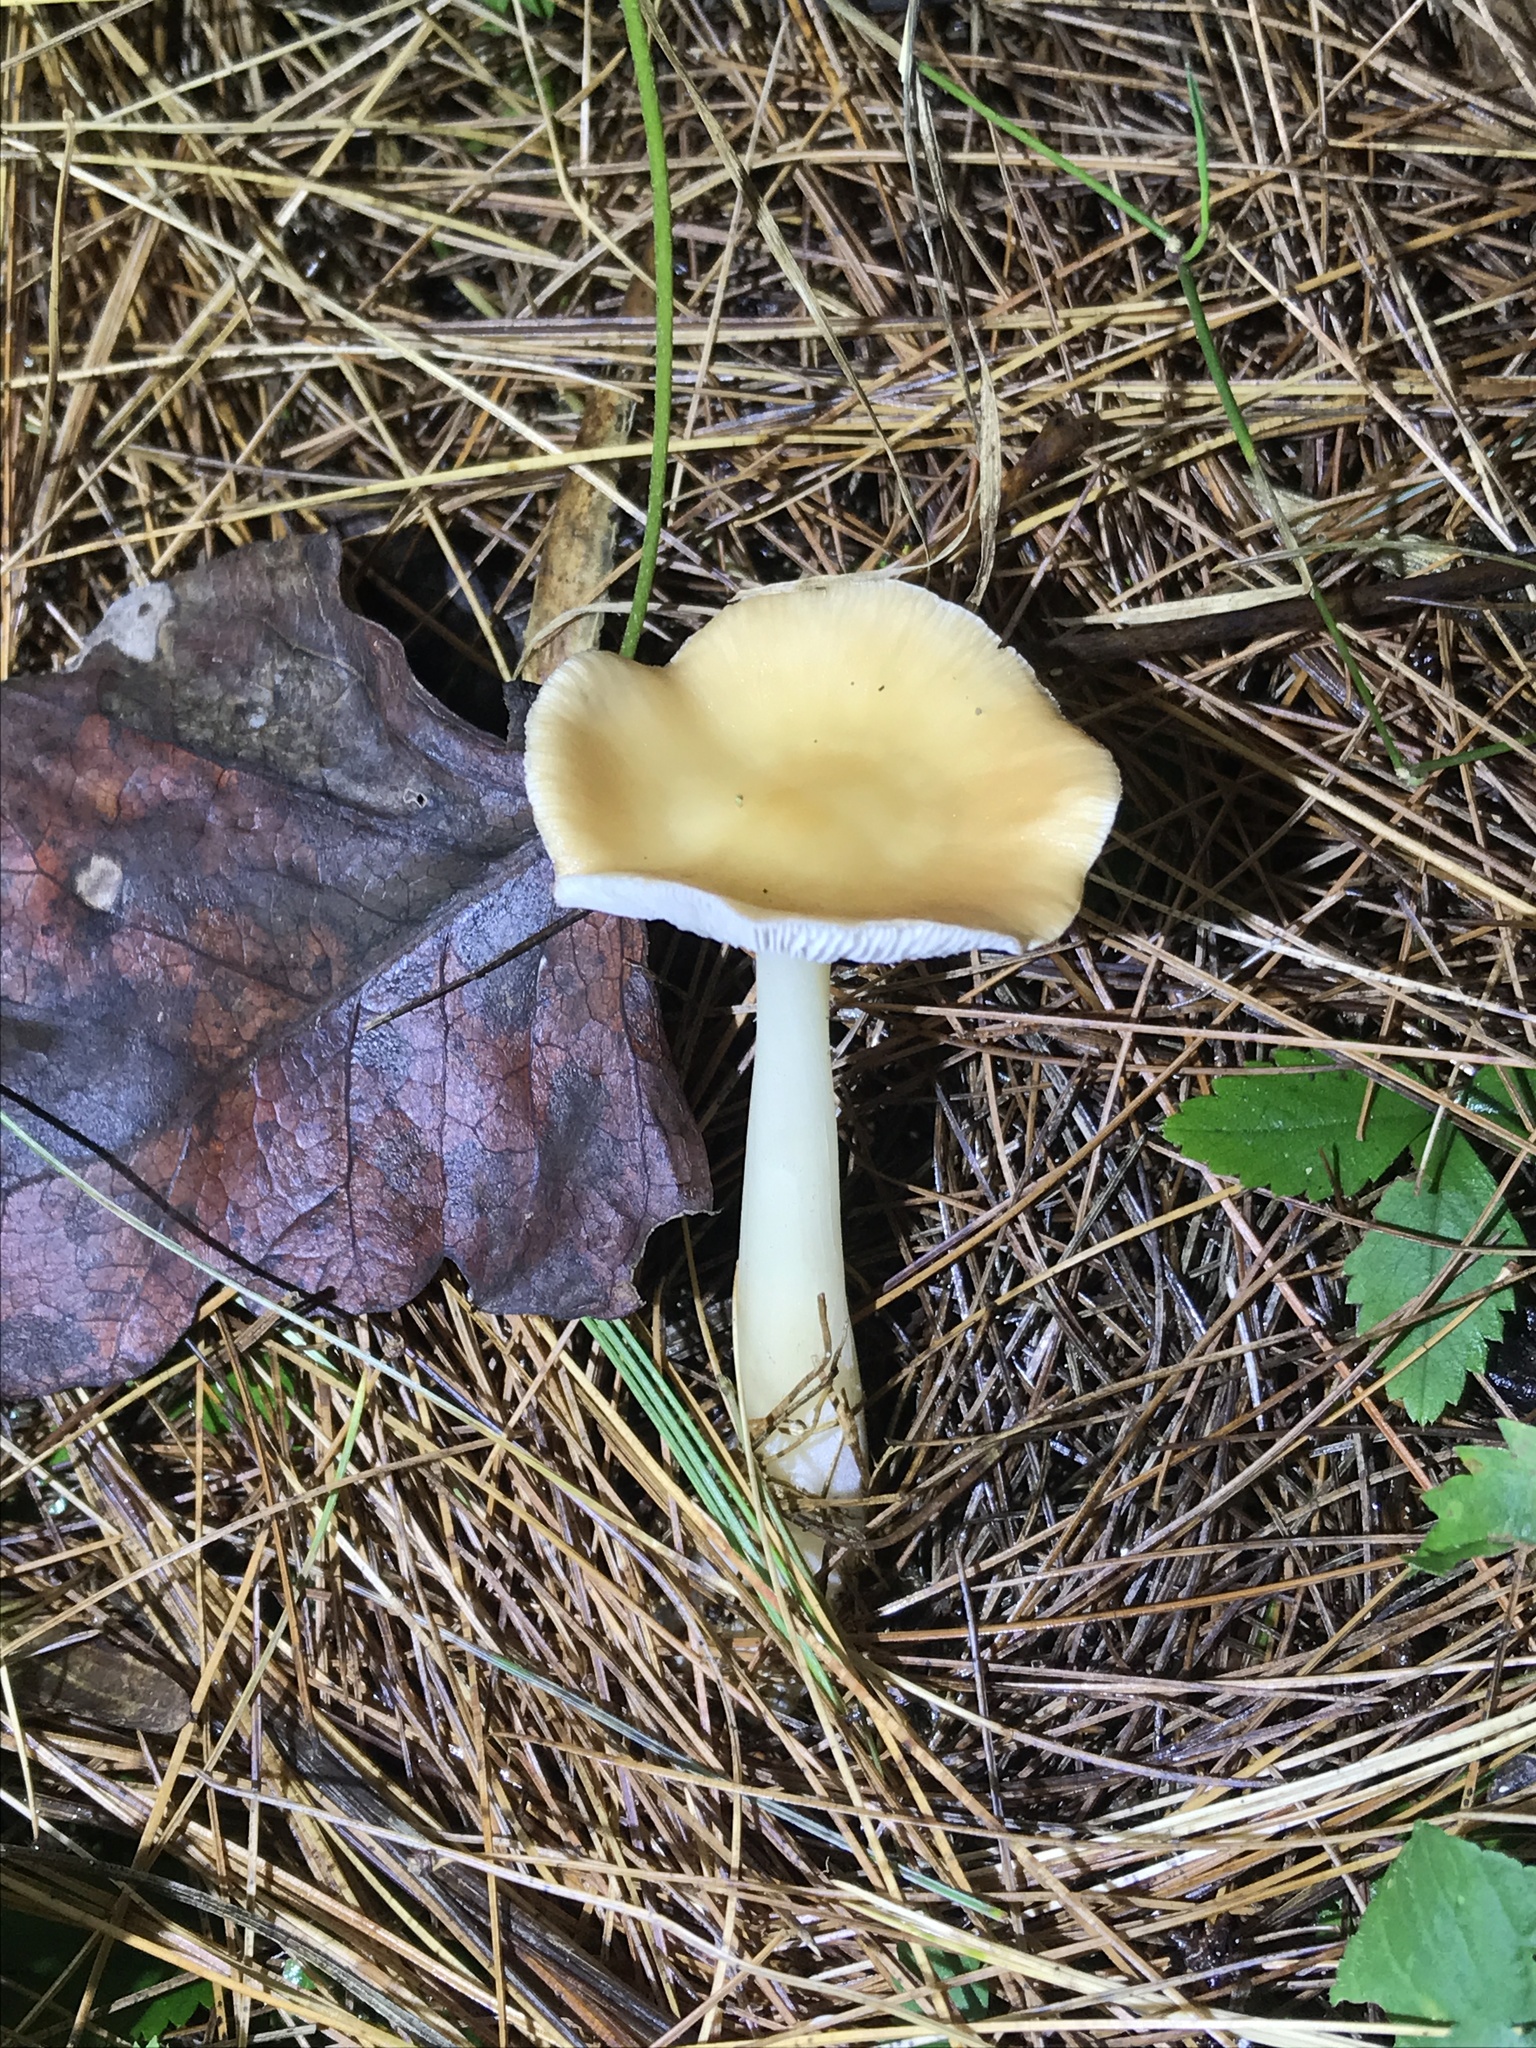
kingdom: Fungi
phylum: Basidiomycota
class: Agaricomycetes
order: Agaricales
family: Omphalotaceae
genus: Rhodocollybia
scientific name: Rhodocollybia butyracea
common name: Butter cap
